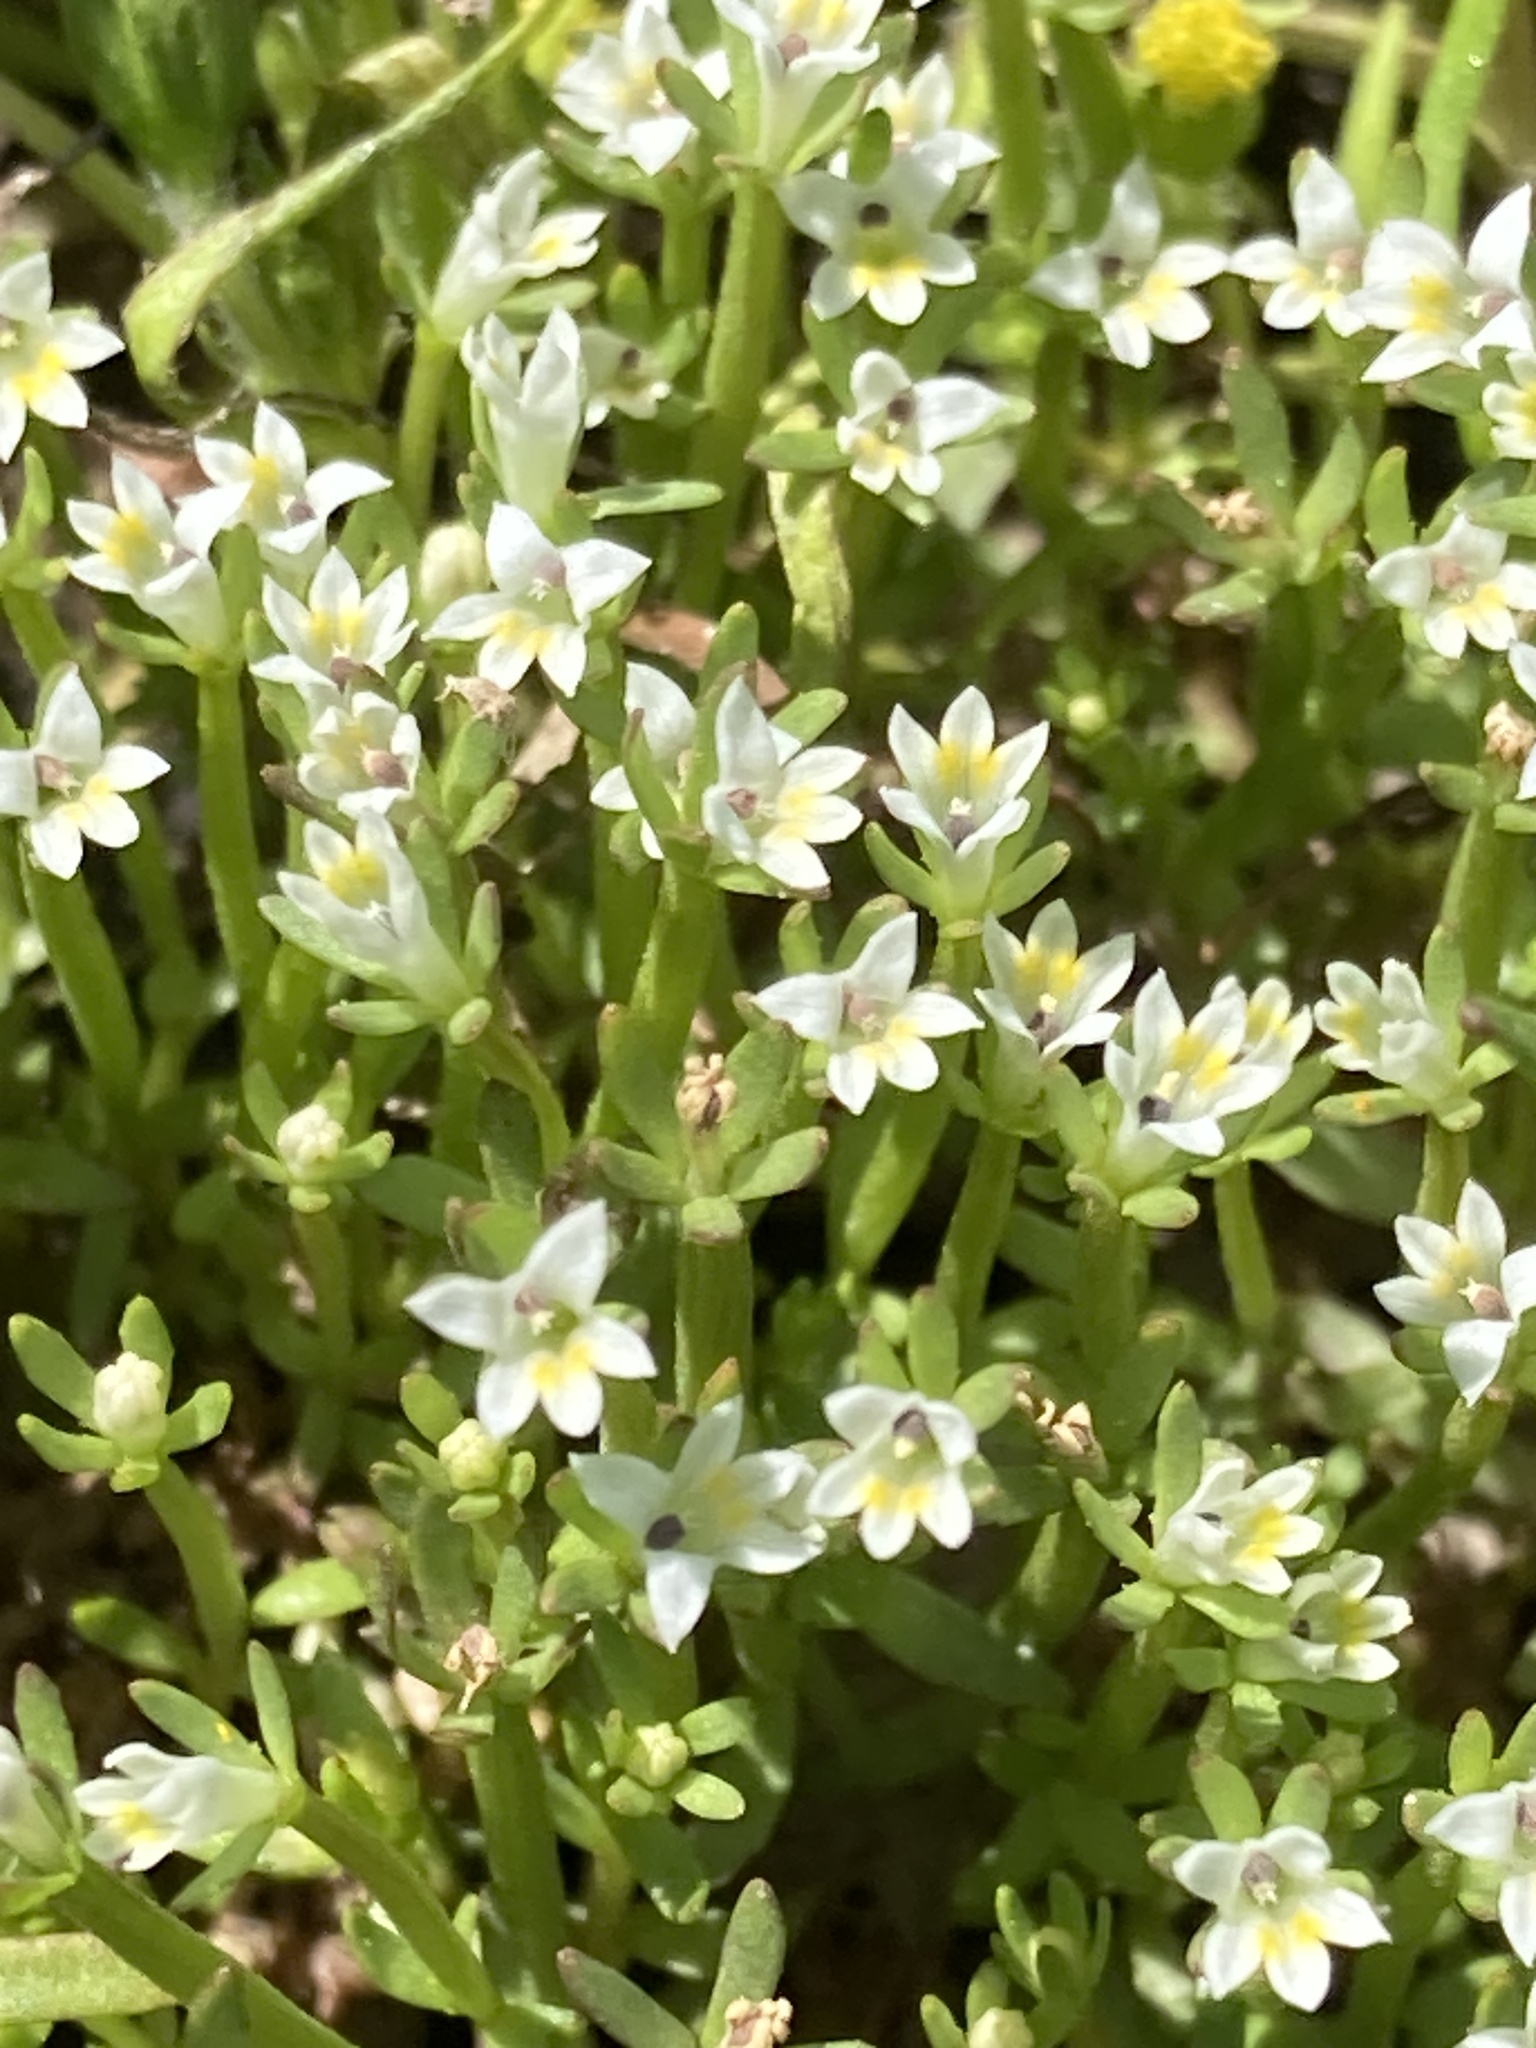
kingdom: Plantae
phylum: Tracheophyta
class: Magnoliopsida
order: Asterales
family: Campanulaceae
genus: Downingia
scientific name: Downingia pusilla
